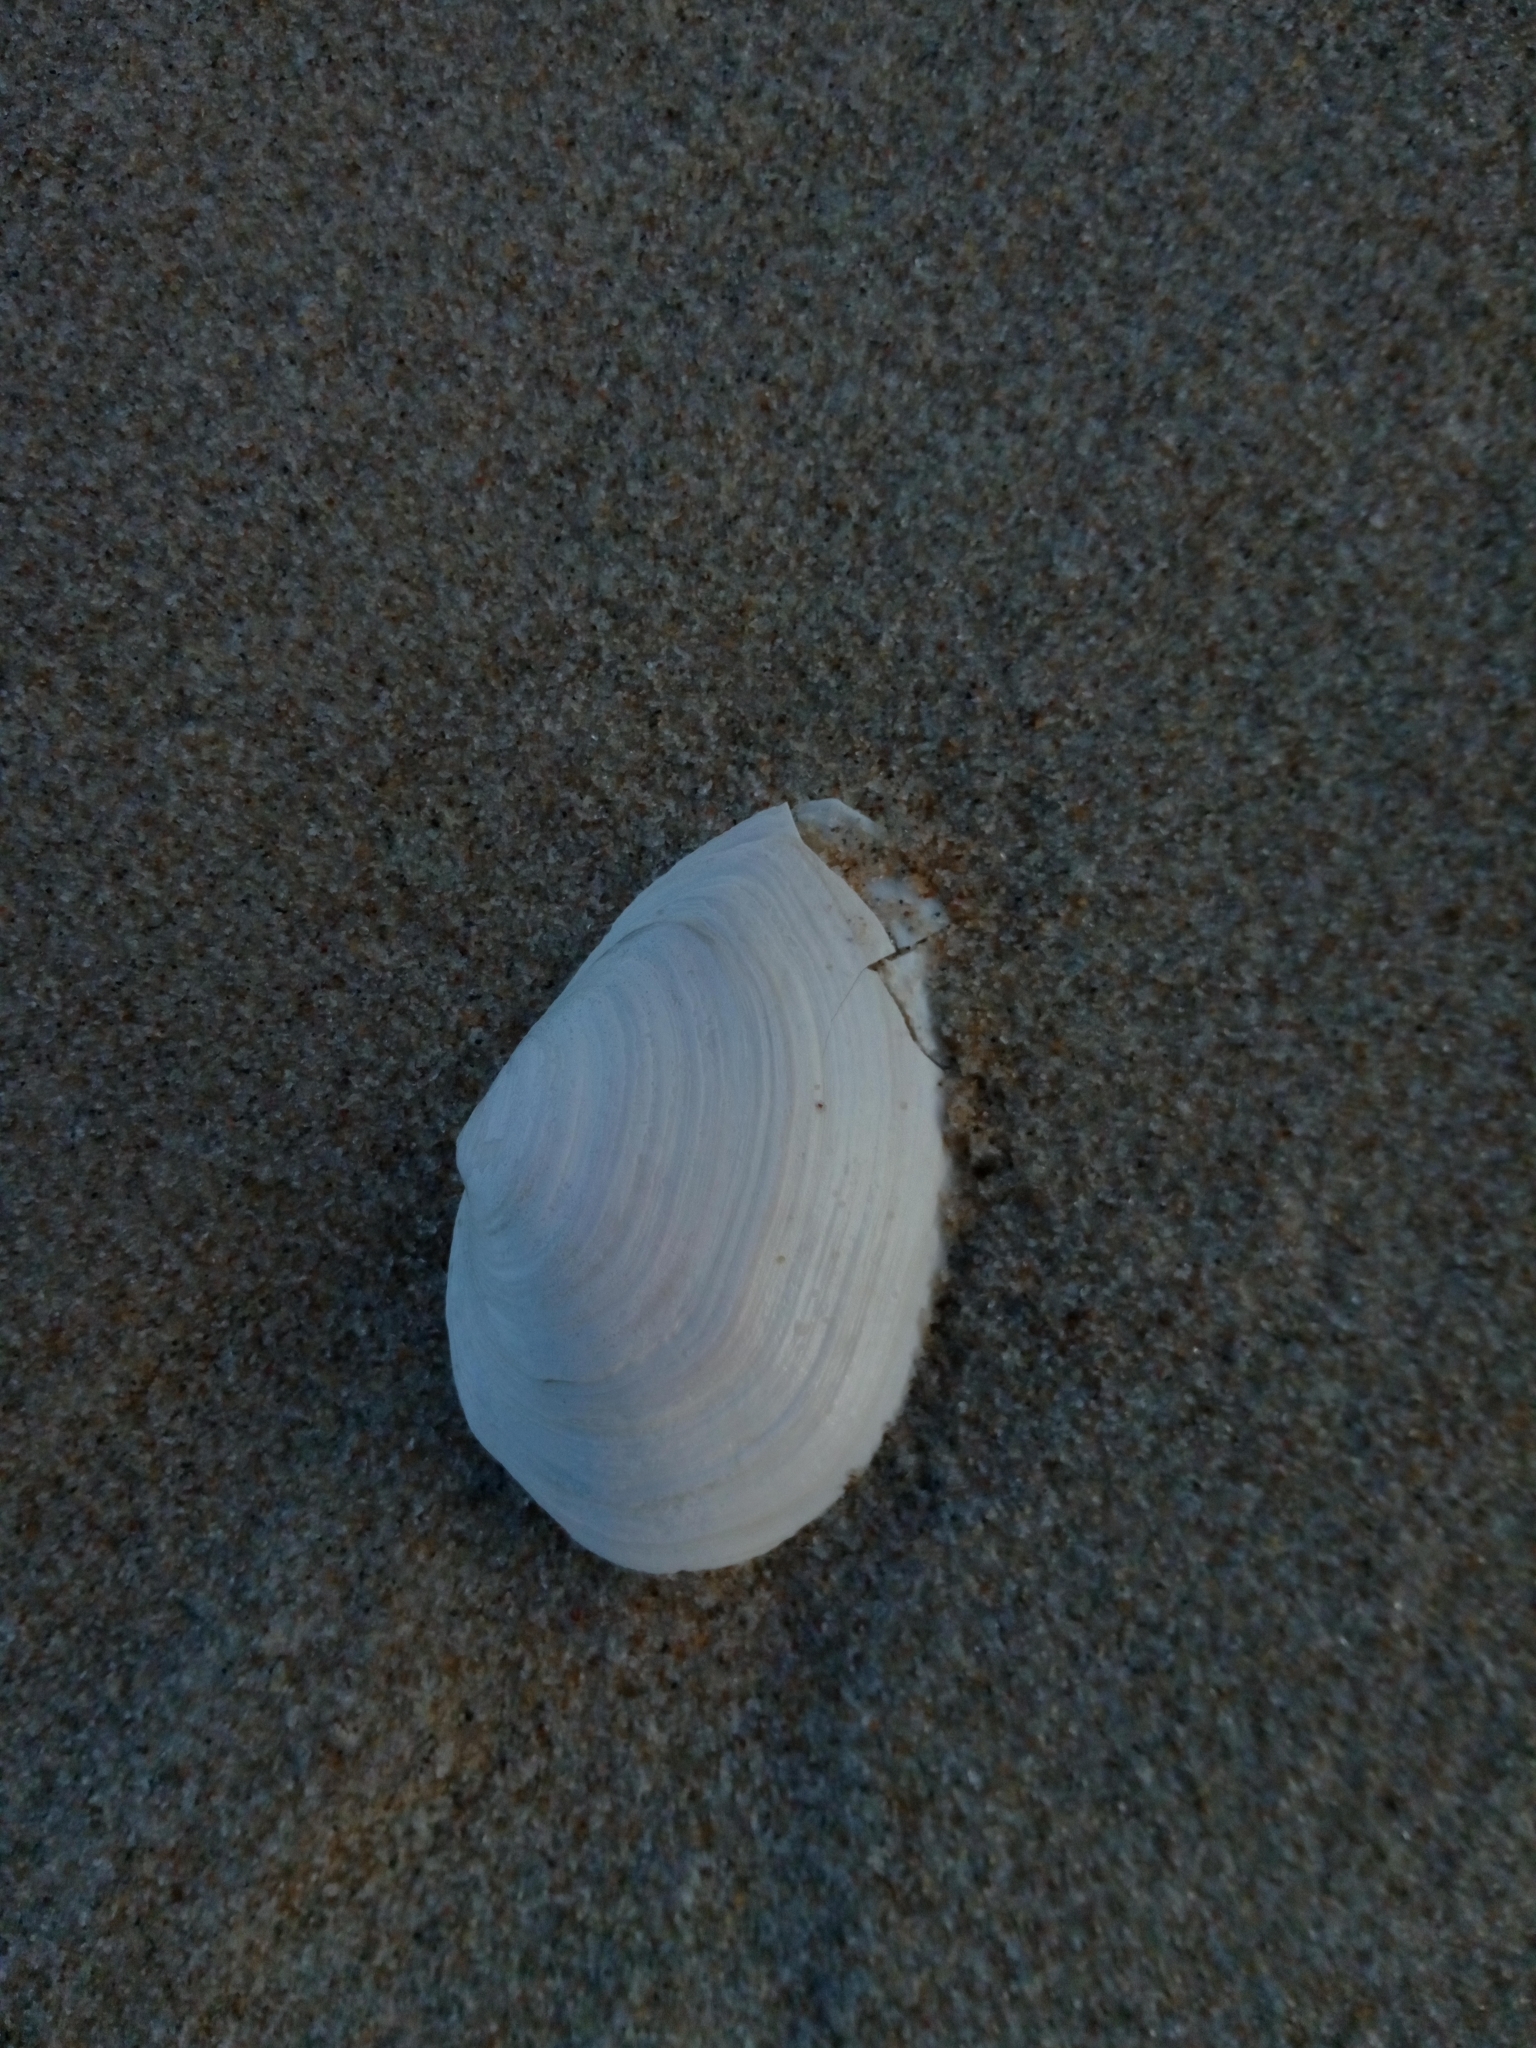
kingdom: Animalia
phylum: Mollusca
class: Bivalvia
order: Myida
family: Myidae
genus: Mya
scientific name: Mya arenaria
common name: Soft-shelled clam
